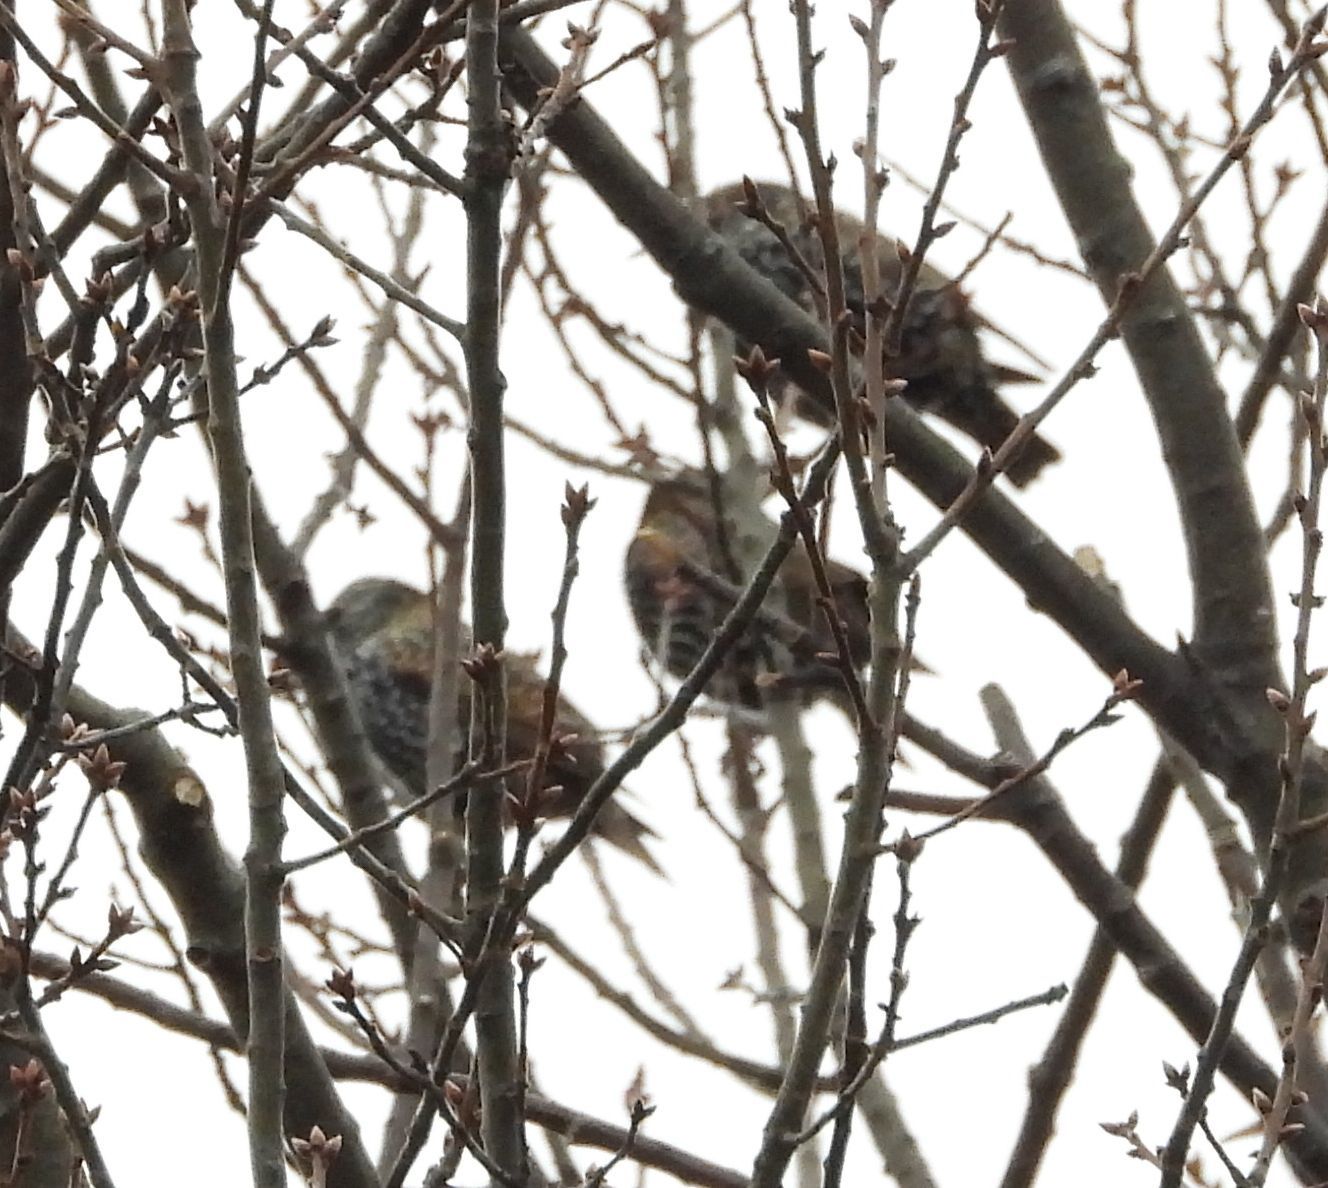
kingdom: Animalia
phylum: Chordata
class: Aves
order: Passeriformes
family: Sturnidae
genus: Sturnus
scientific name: Sturnus vulgaris
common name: Common starling
